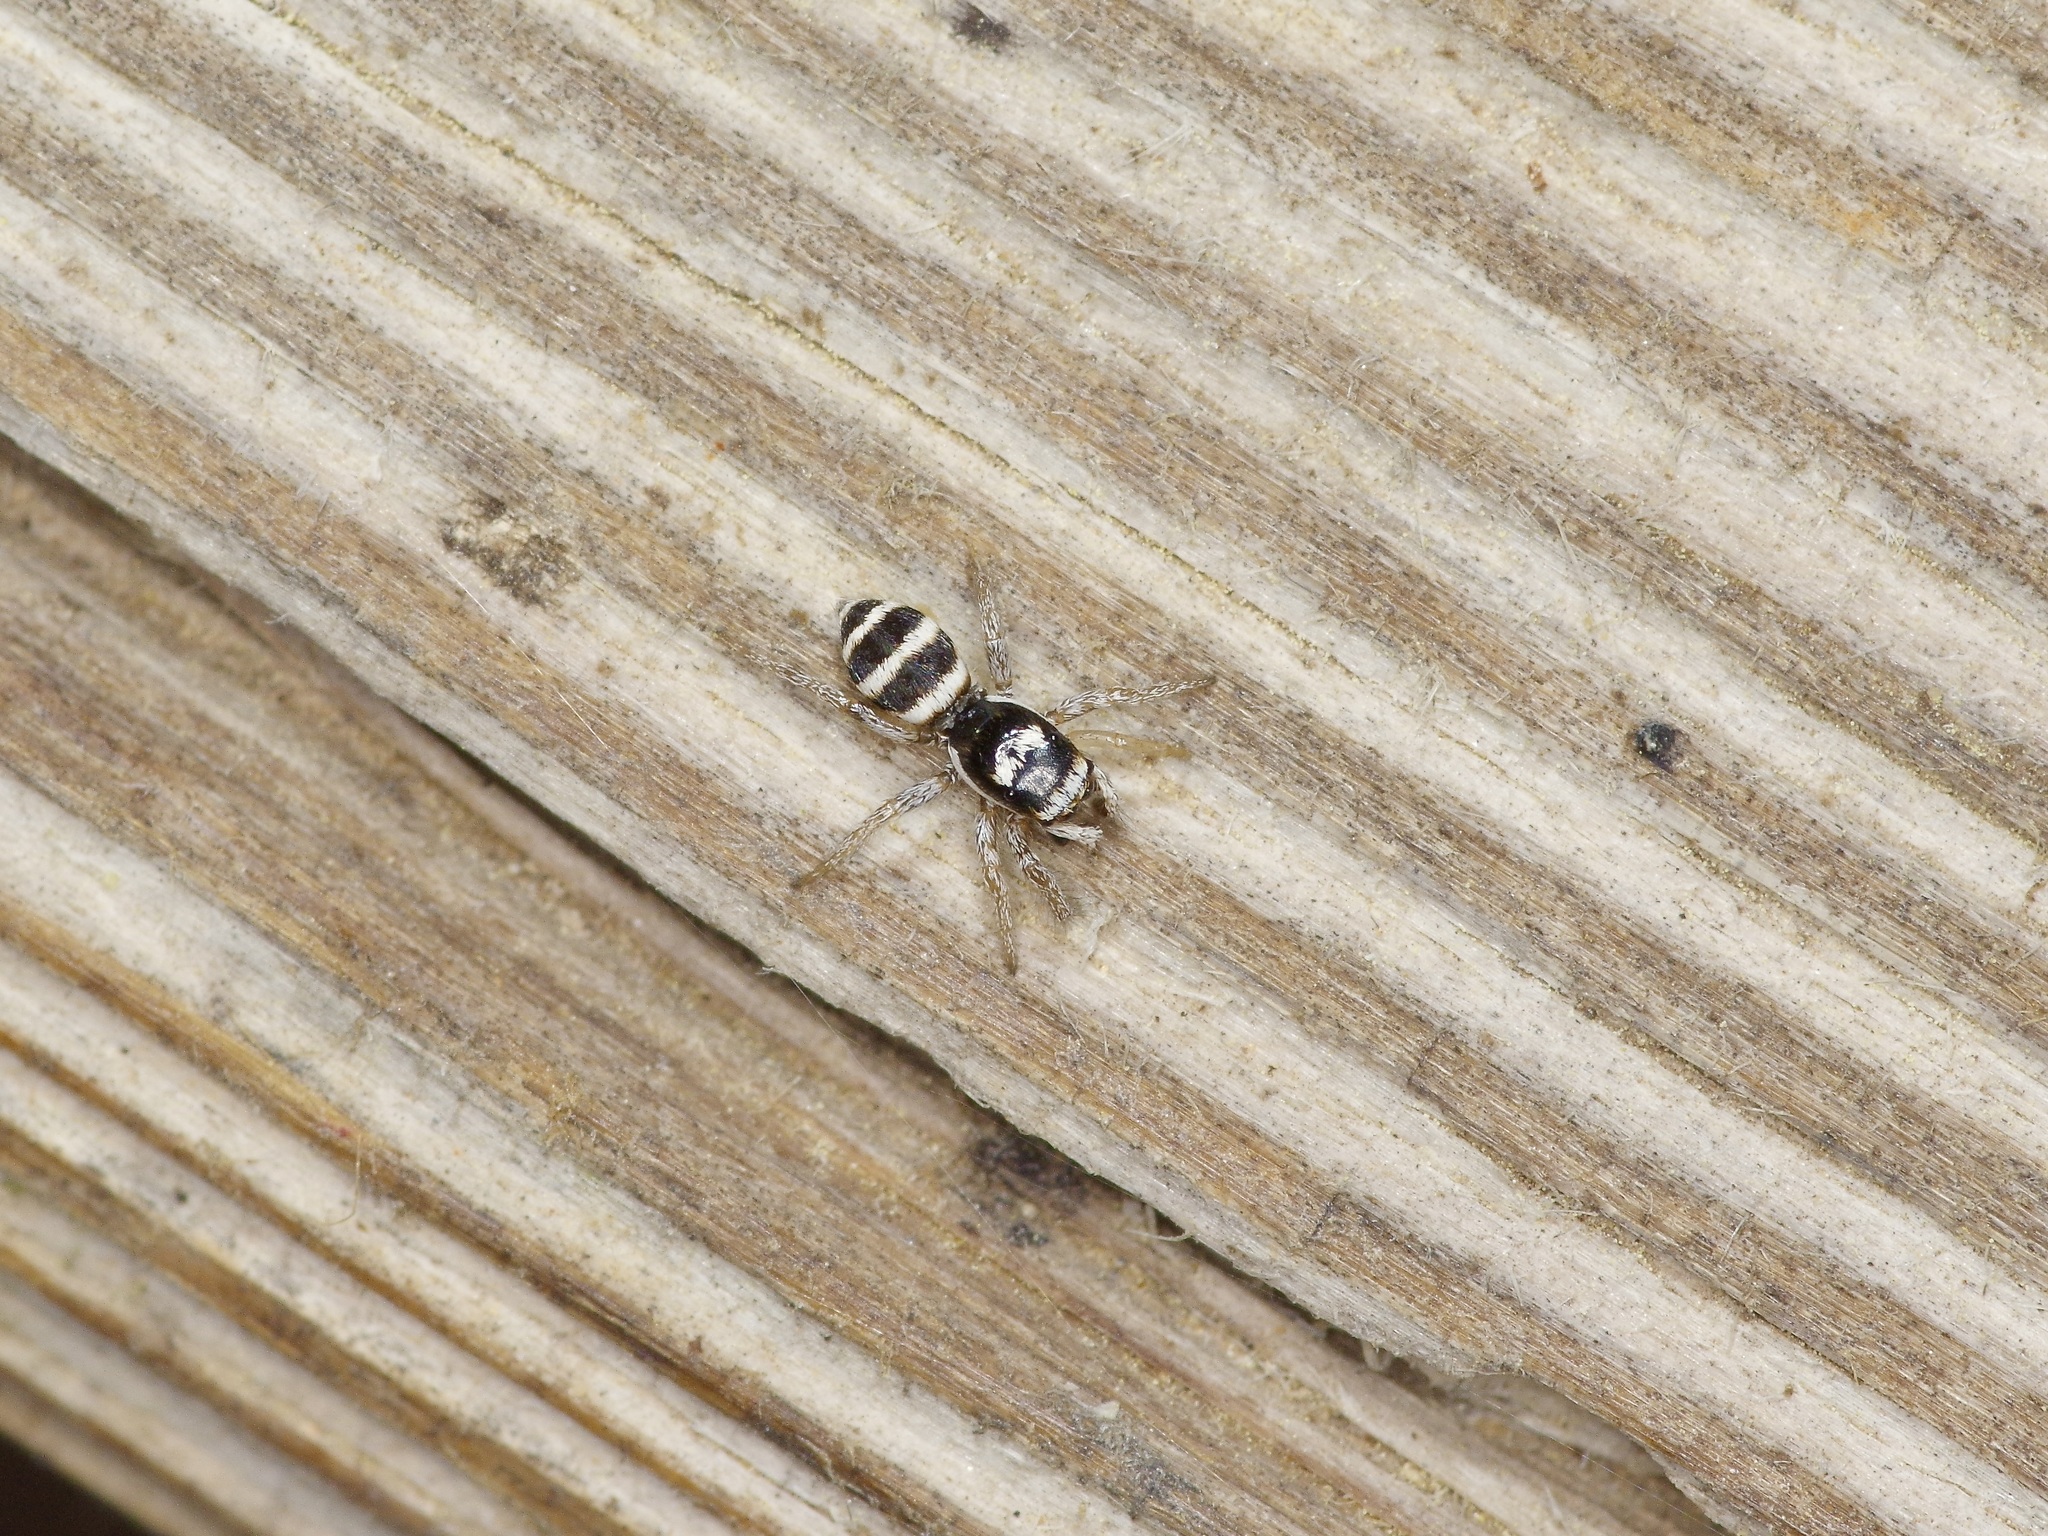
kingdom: Animalia
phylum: Arthropoda
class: Arachnida
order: Araneae
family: Salticidae
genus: Salticus
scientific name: Salticus austinensis
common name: Jumping spiders
